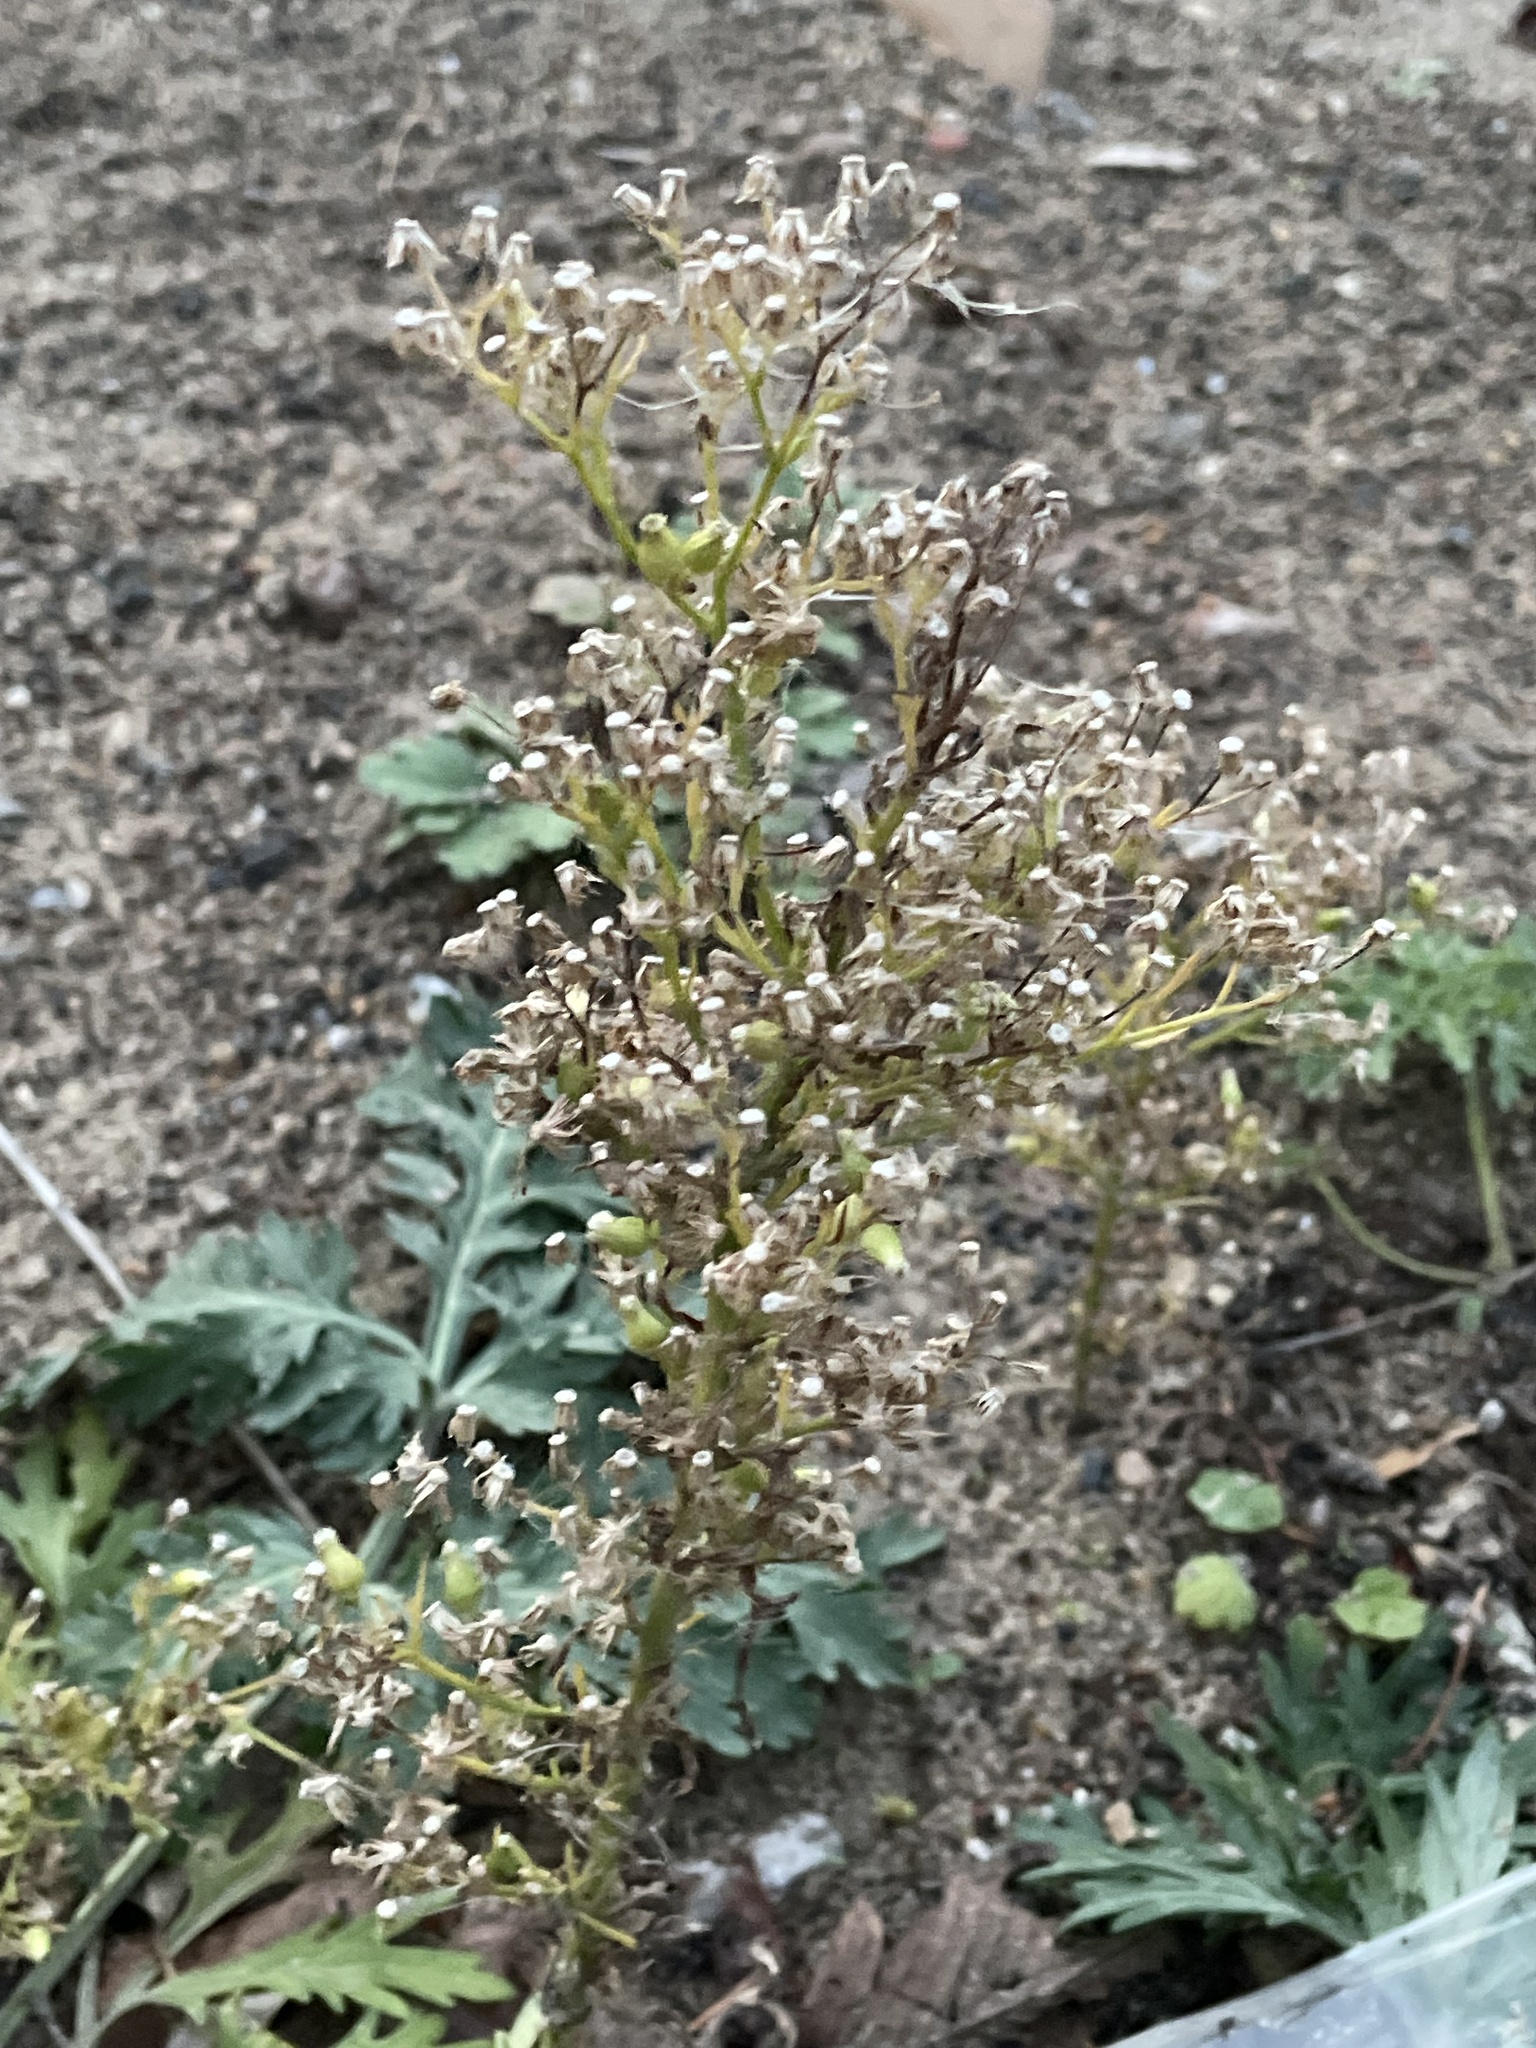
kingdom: Plantae
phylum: Tracheophyta
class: Magnoliopsida
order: Asterales
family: Asteraceae
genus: Erigeron
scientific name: Erigeron canadensis
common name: Canadian fleabane
